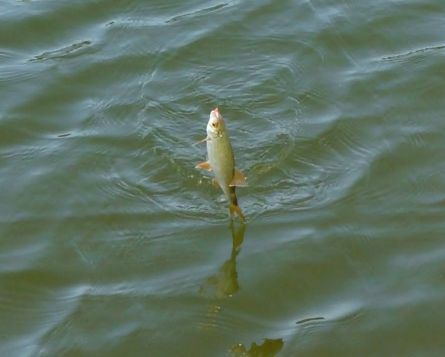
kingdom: Animalia
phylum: Chordata
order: Cypriniformes
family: Cyprinidae
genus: Rutilus
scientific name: Rutilus rutilus
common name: Roach
